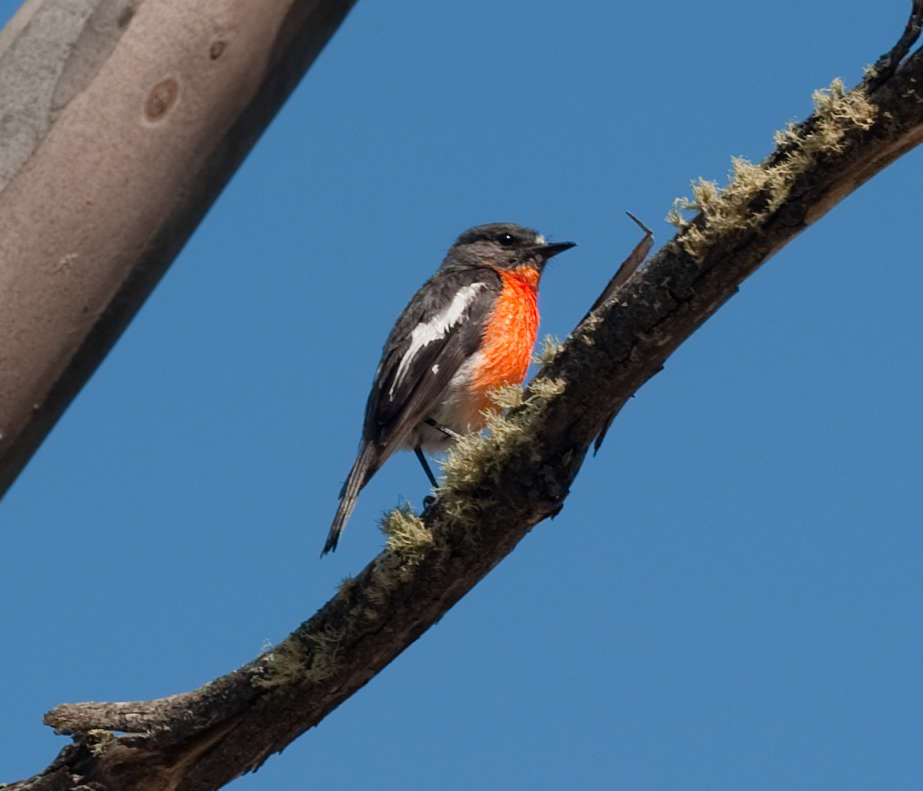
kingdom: Animalia
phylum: Chordata
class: Aves
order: Passeriformes
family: Petroicidae
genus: Petroica
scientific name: Petroica phoenicea
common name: Flame robin
